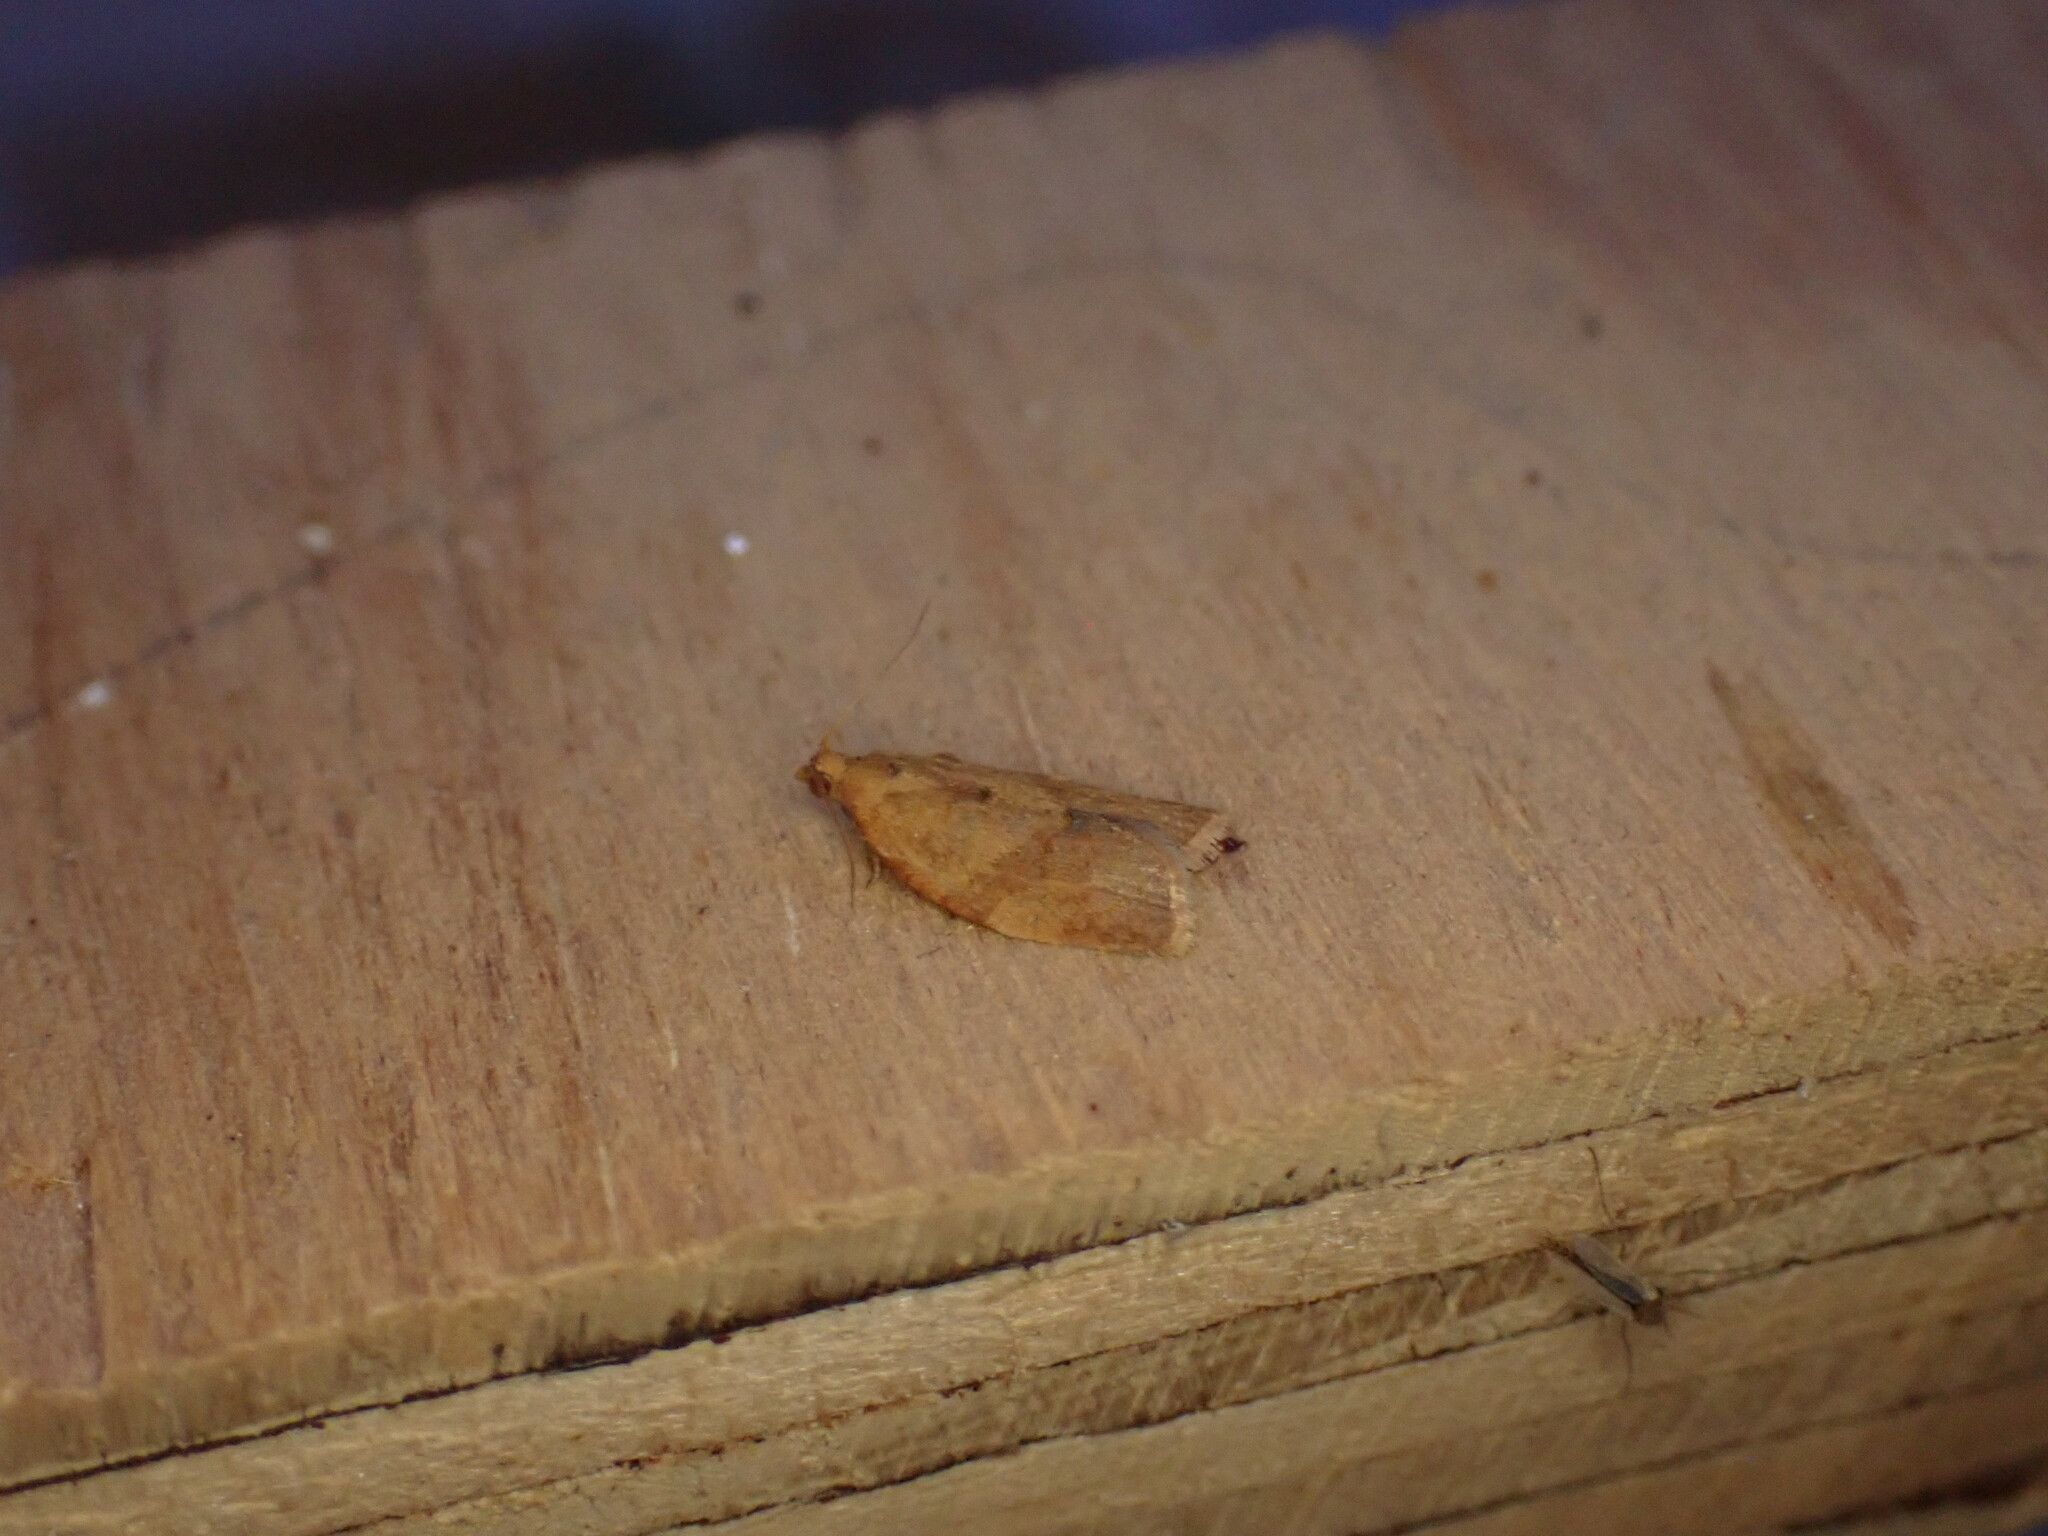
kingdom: Animalia
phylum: Arthropoda
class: Insecta
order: Lepidoptera
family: Tortricidae
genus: Clepsis
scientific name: Clepsis consimilana
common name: Privet tortrix
